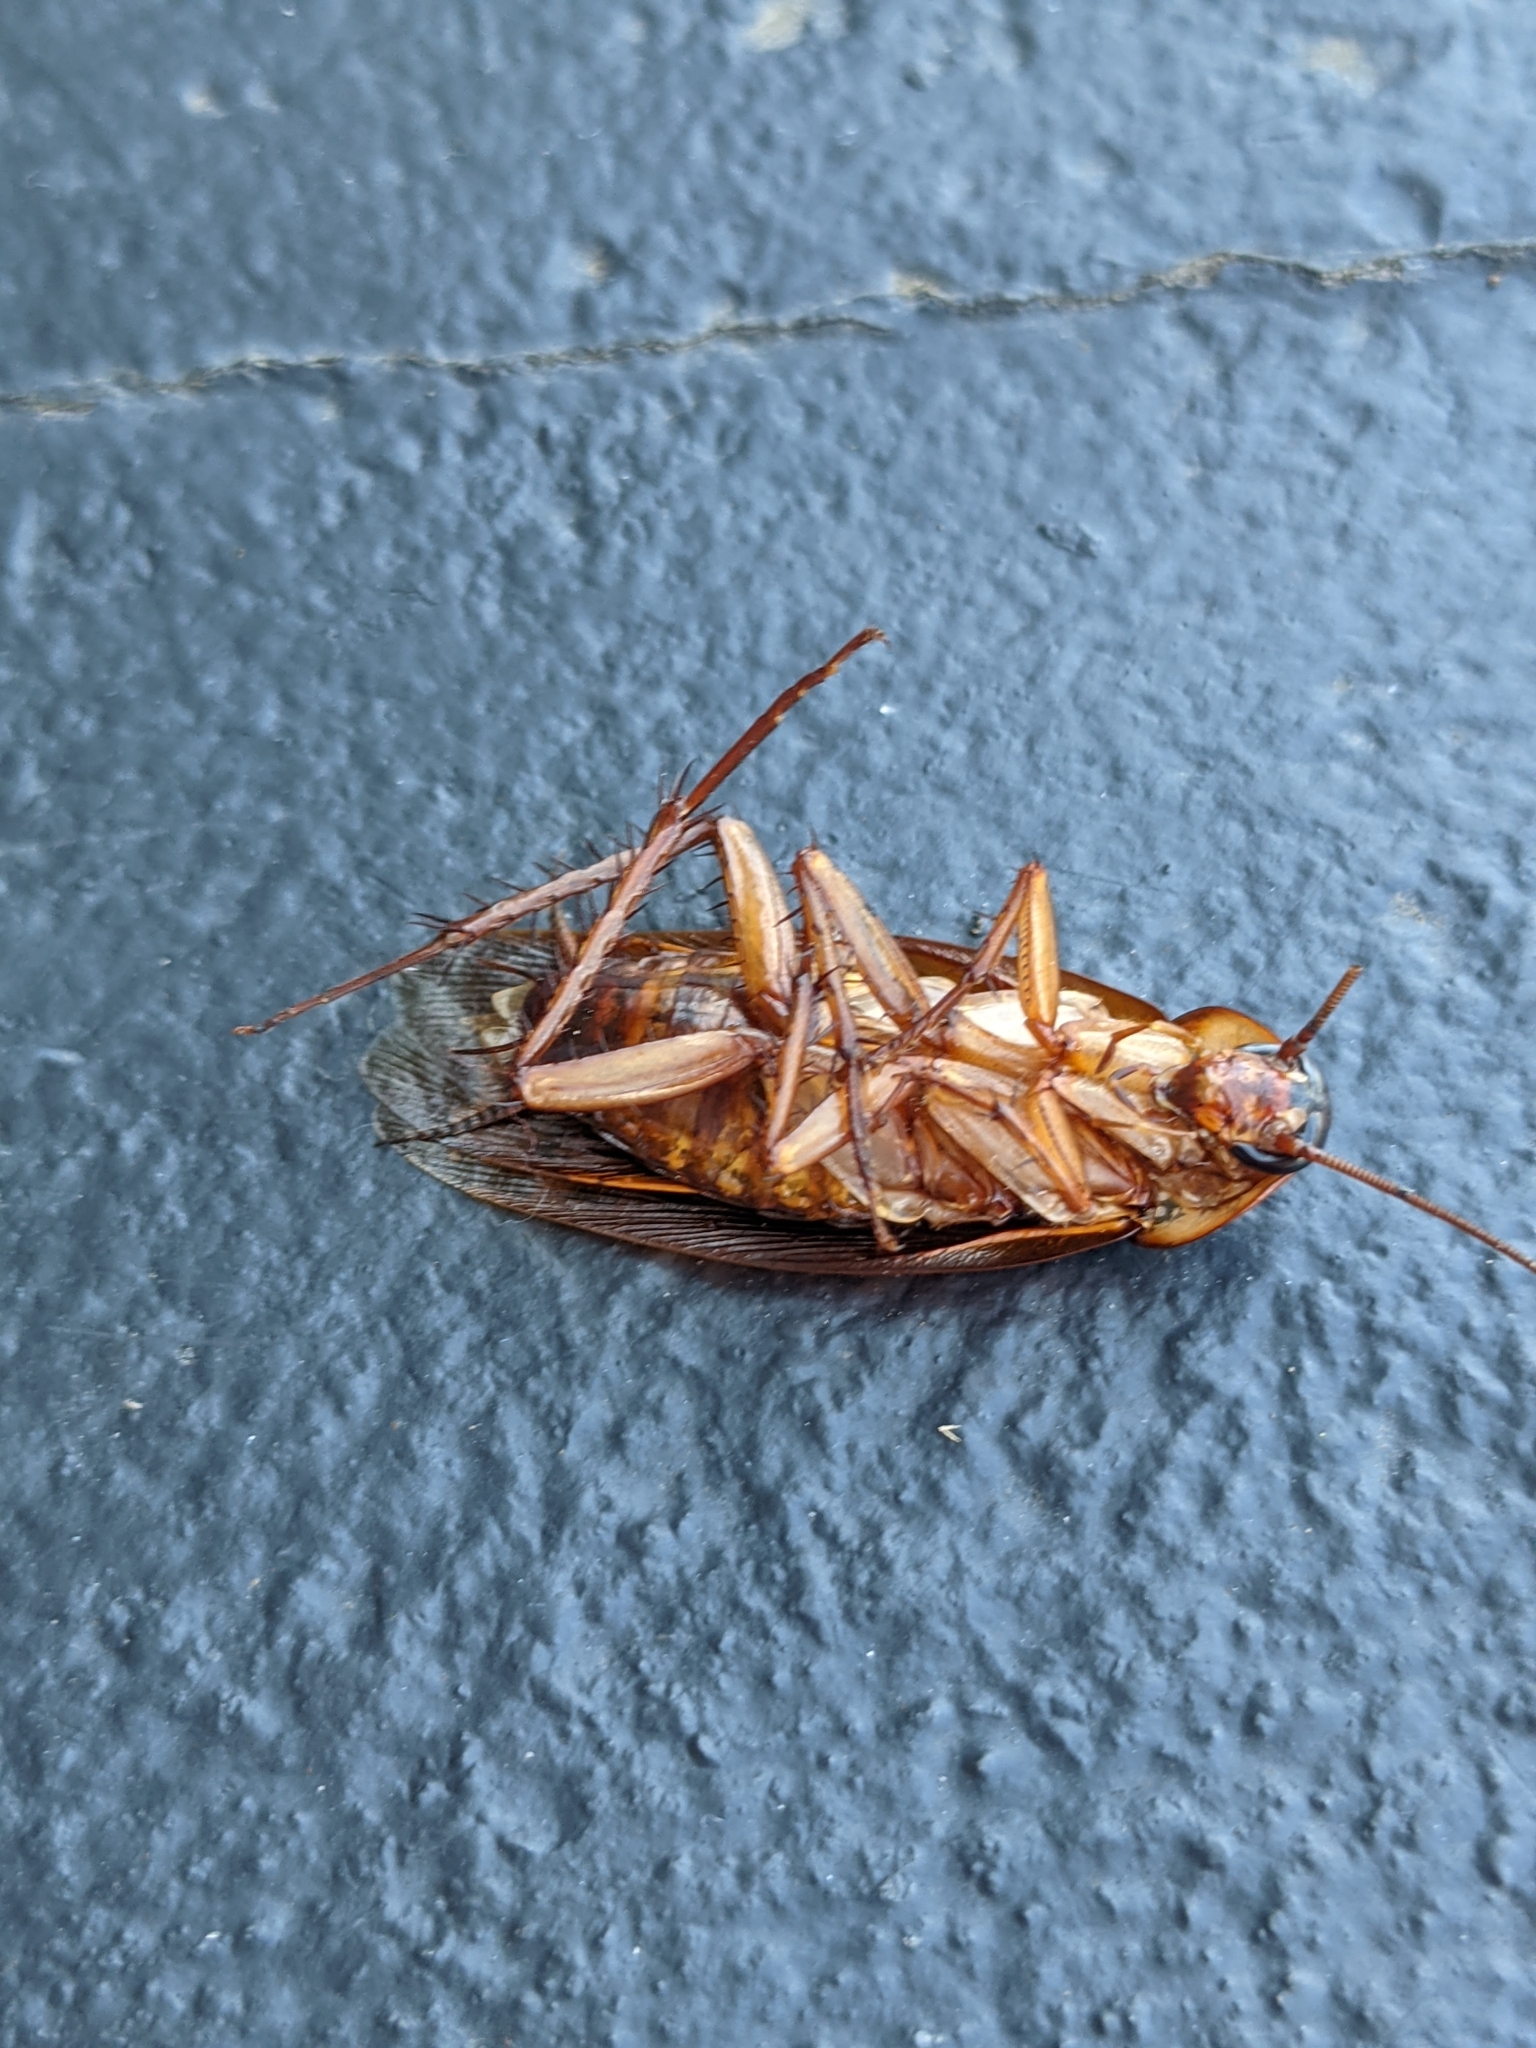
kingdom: Animalia
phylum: Arthropoda
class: Insecta
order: Blattodea
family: Blattidae
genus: Periplaneta
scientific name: Periplaneta americana
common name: American cockroach
